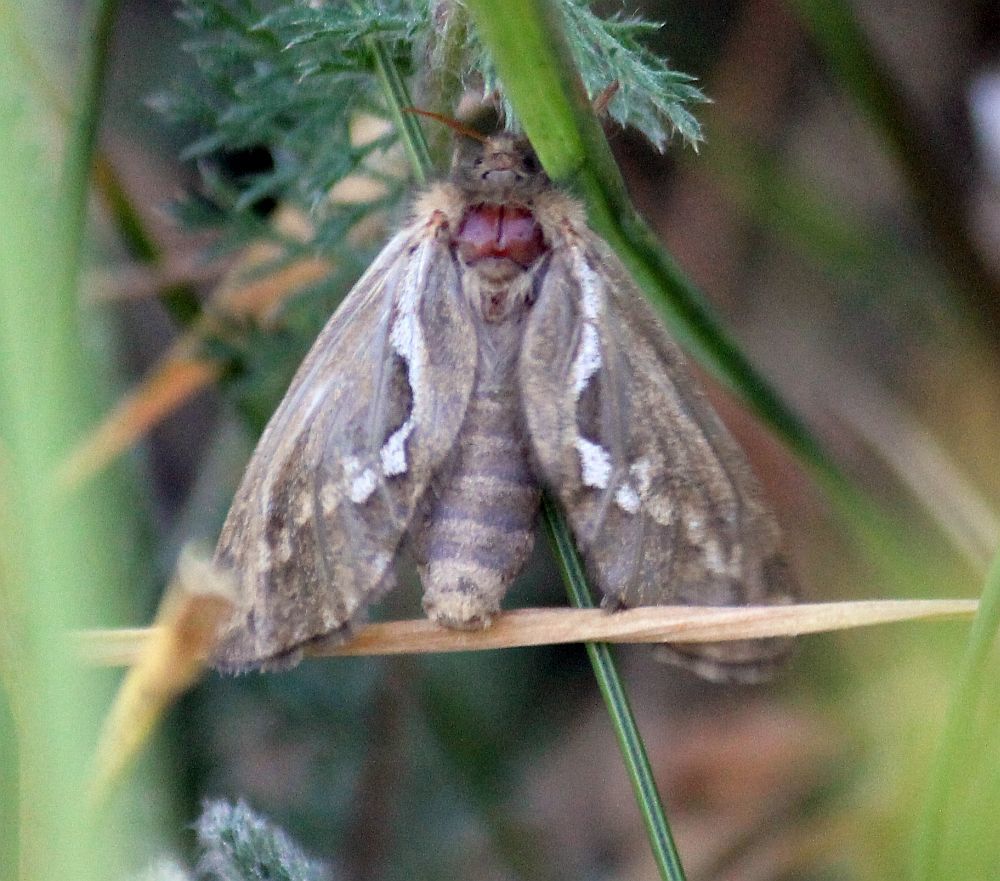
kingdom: Animalia
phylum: Arthropoda
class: Insecta
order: Lepidoptera
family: Hepialidae
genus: Korscheltellus
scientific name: Korscheltellus lupulina
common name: Common swift
